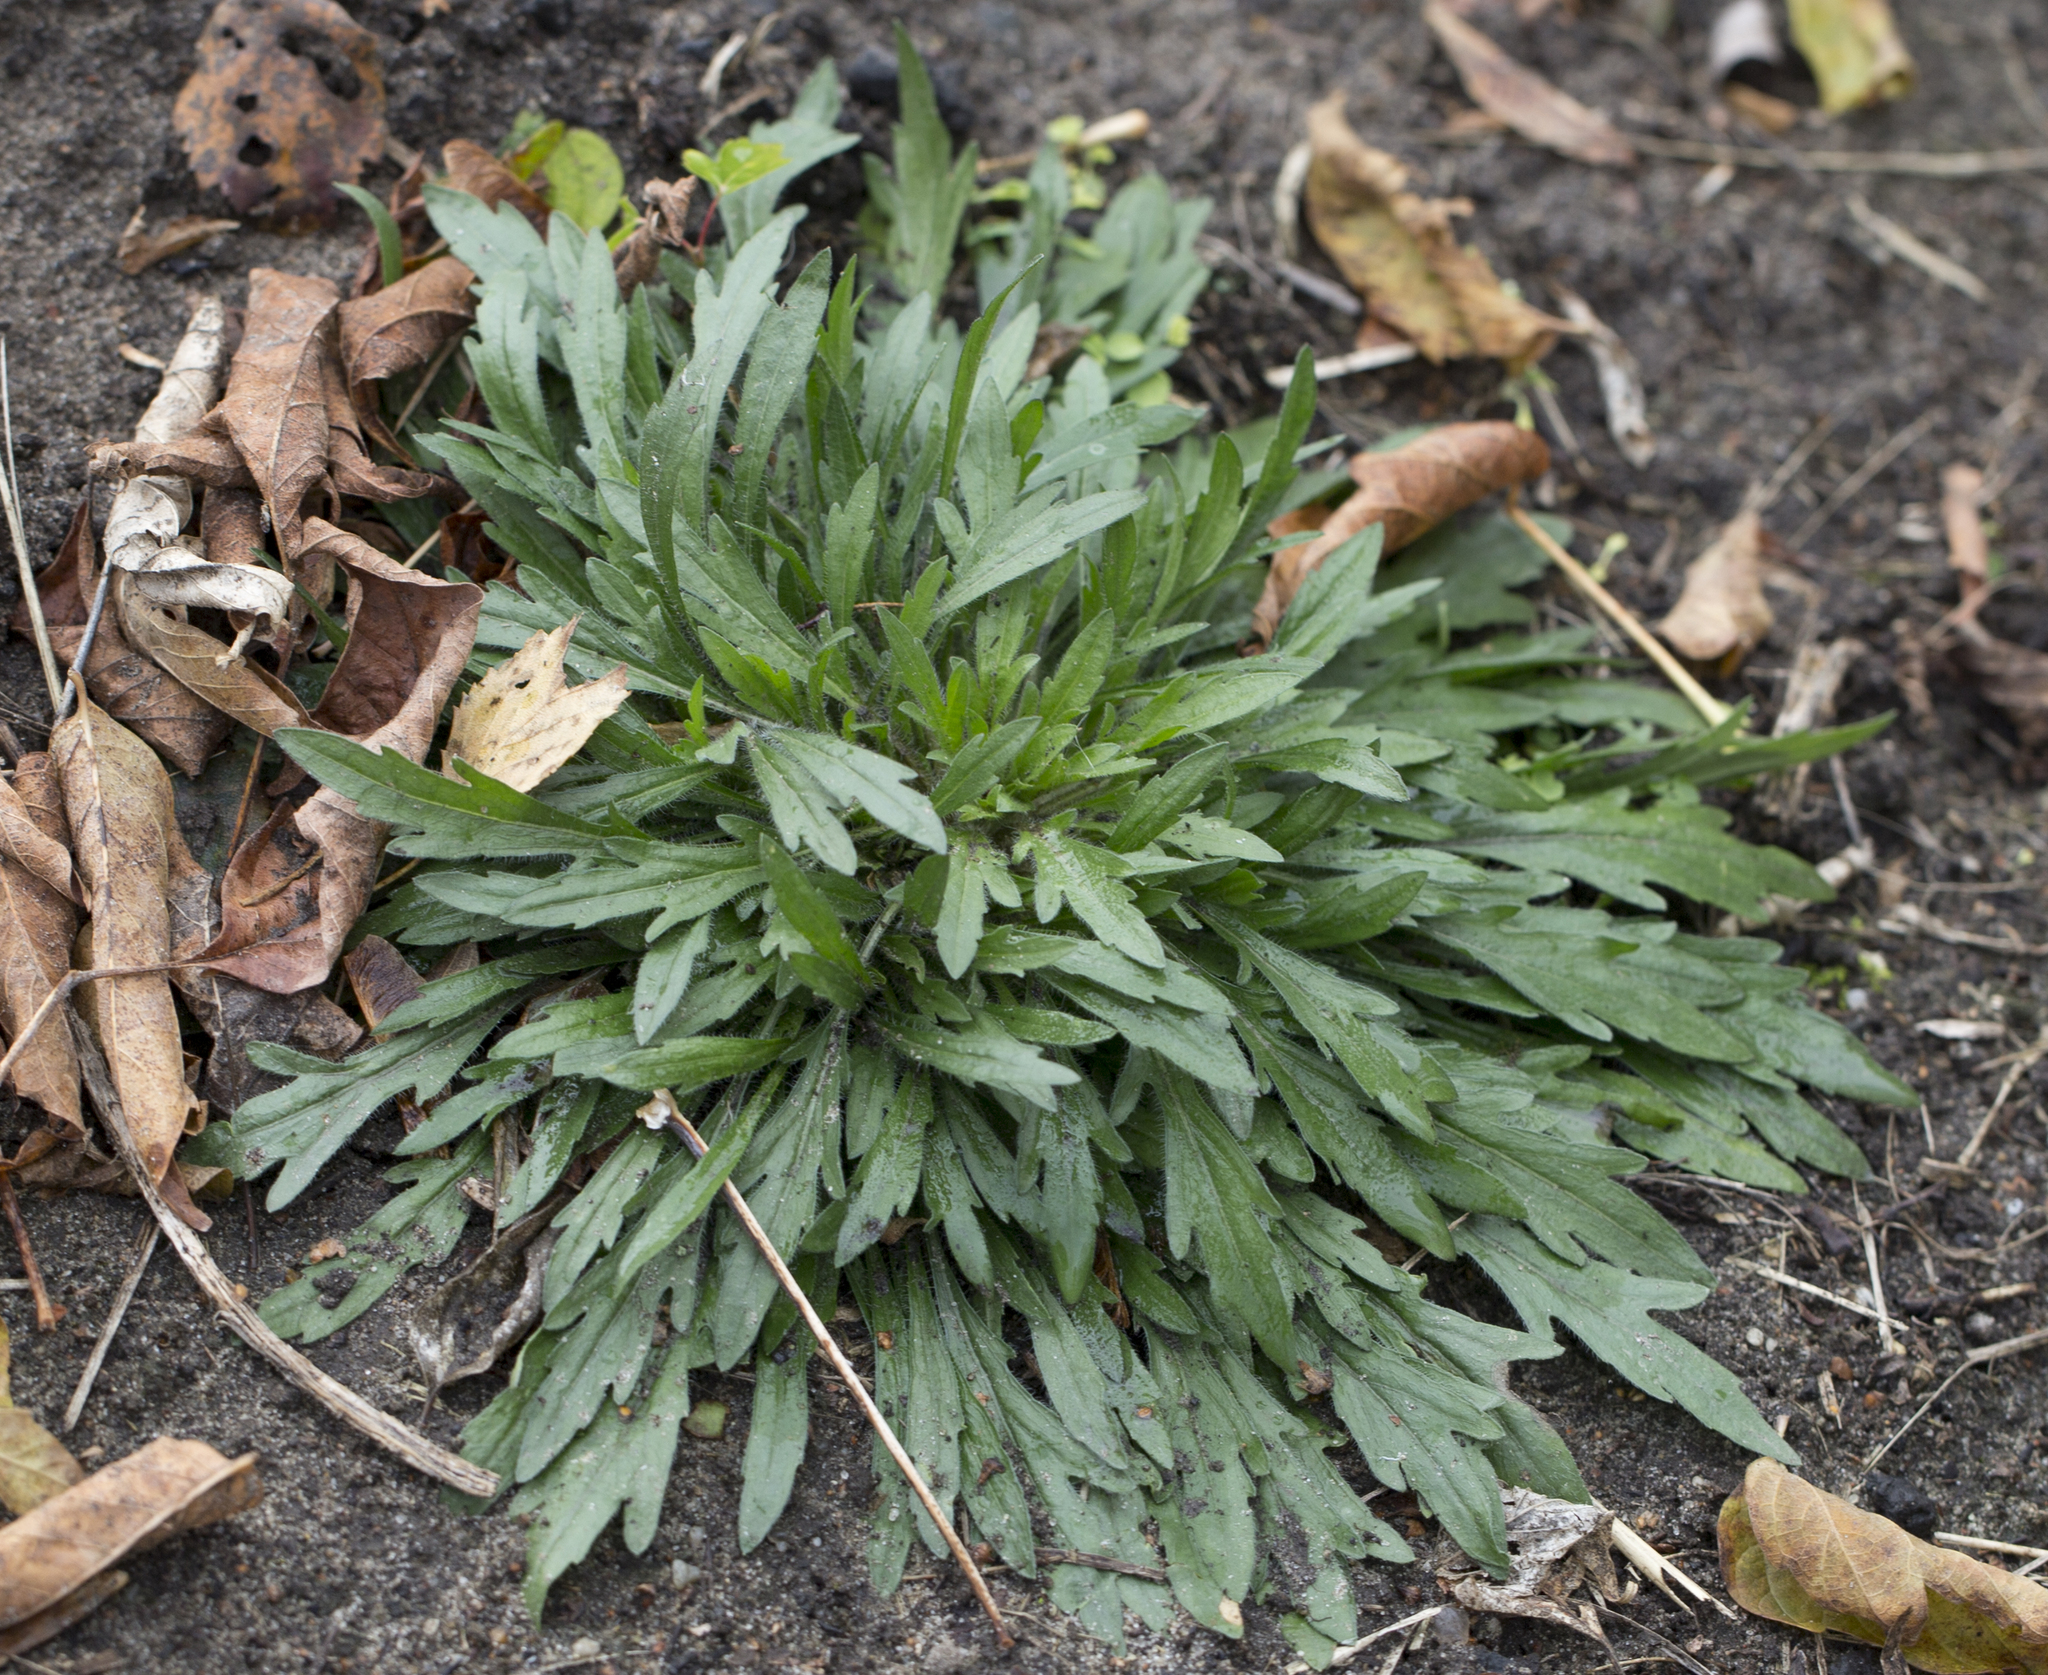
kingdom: Plantae
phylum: Tracheophyta
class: Magnoliopsida
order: Asterales
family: Asteraceae
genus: Erigeron
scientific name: Erigeron canadensis
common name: Canadian fleabane
